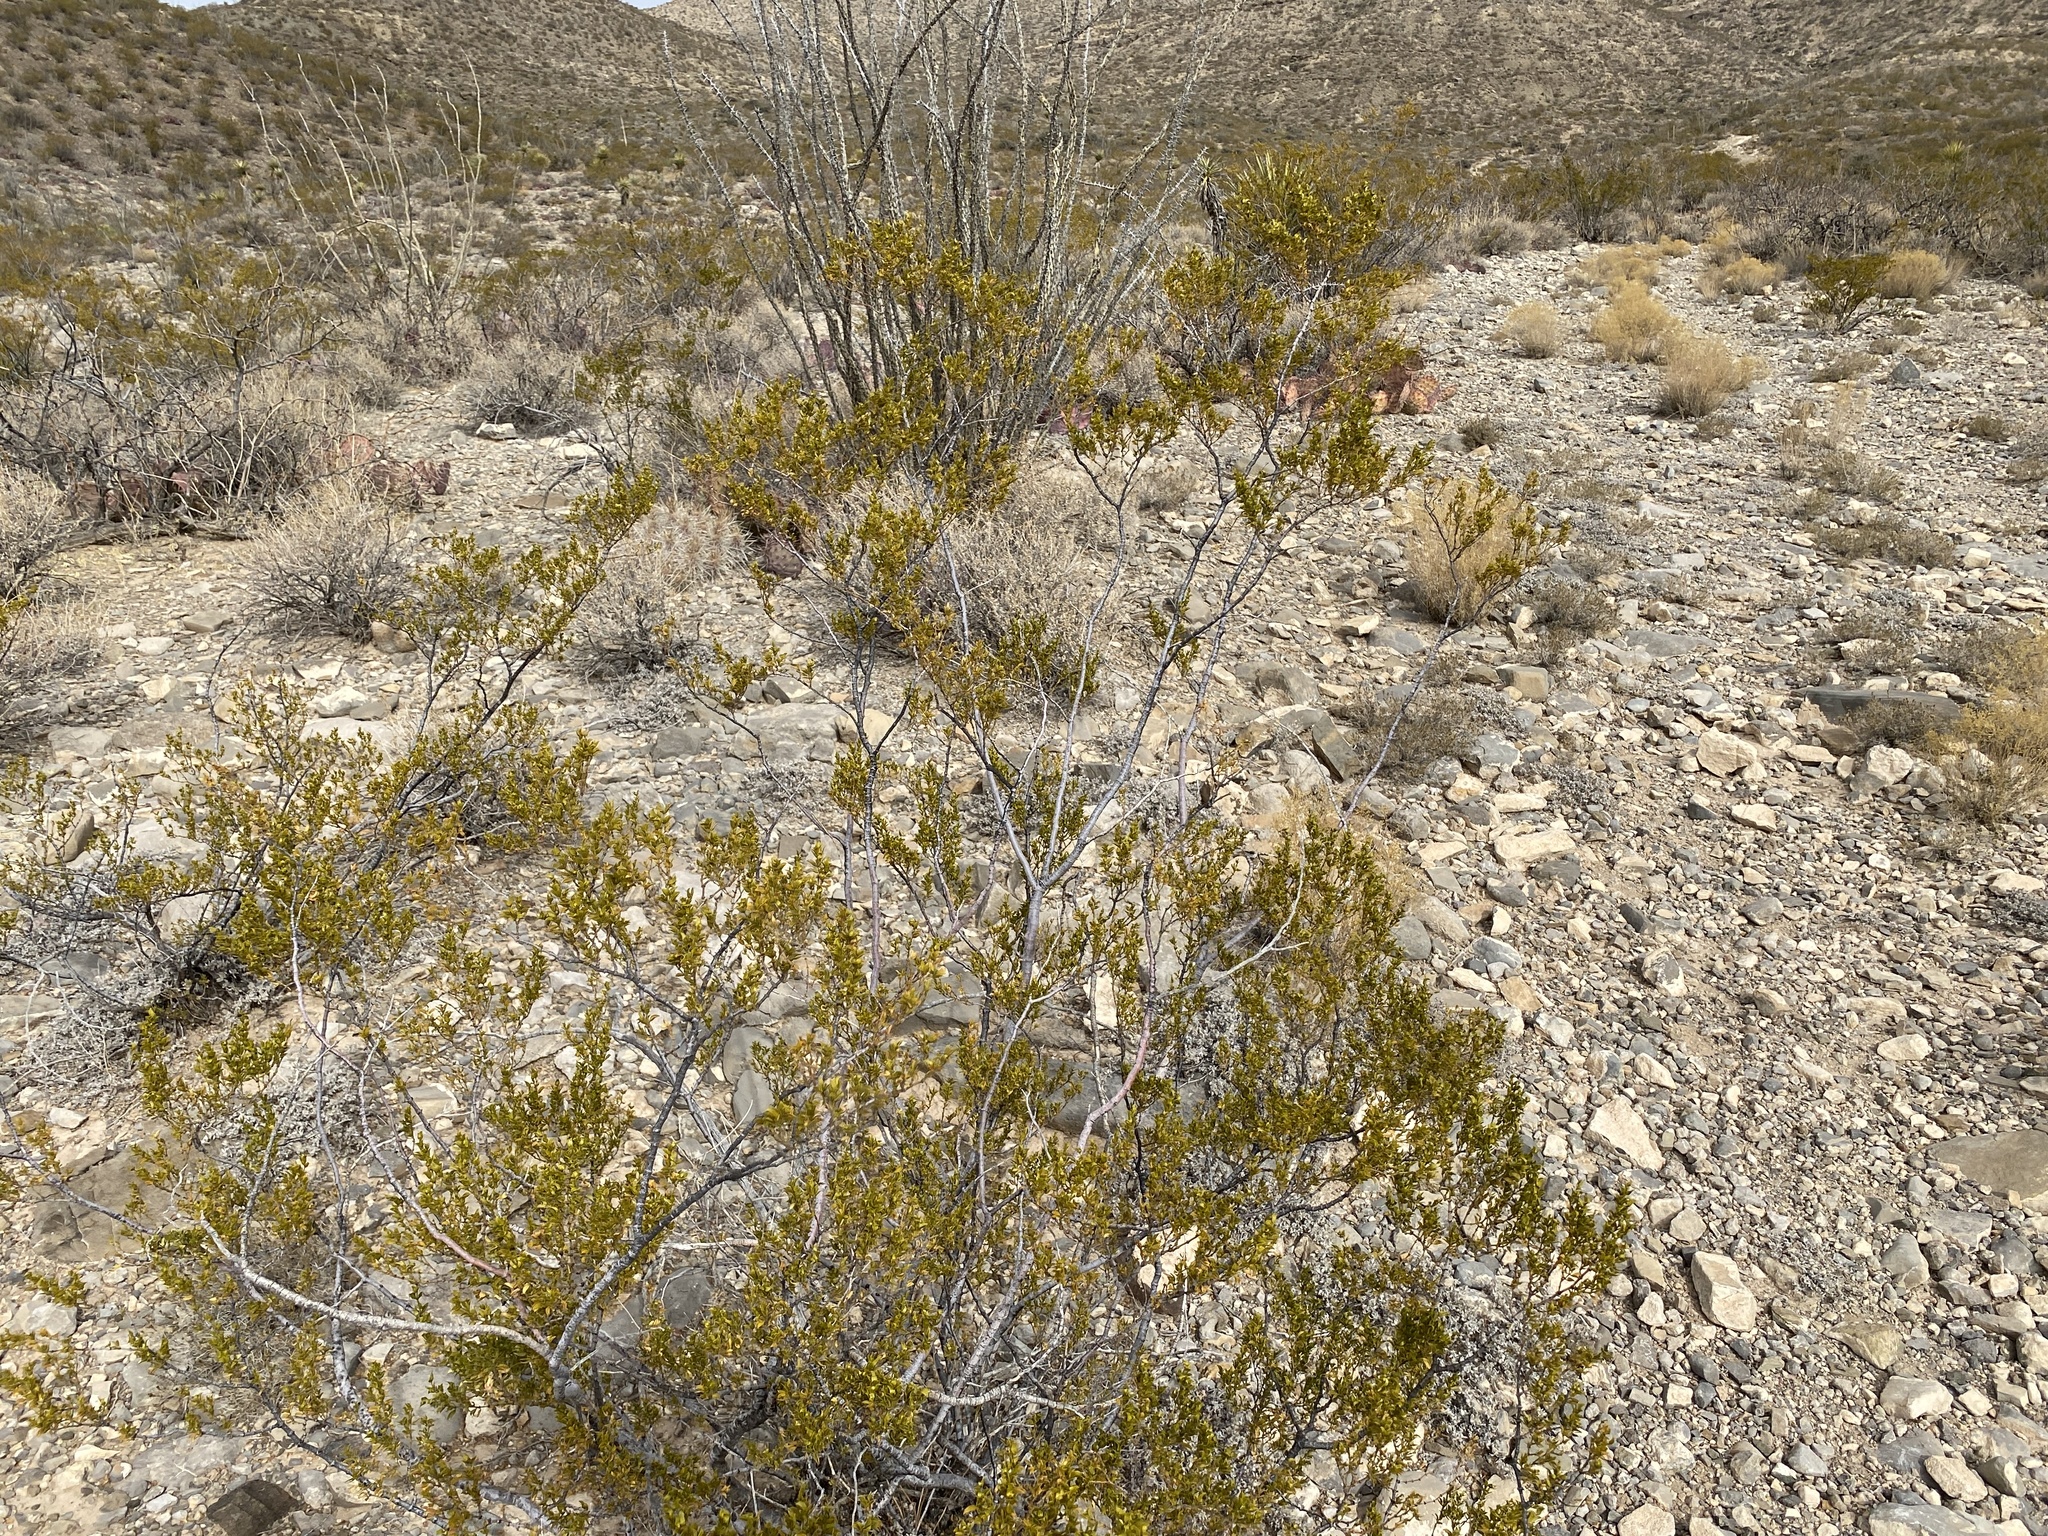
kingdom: Plantae
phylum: Tracheophyta
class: Magnoliopsida
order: Zygophyllales
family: Zygophyllaceae
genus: Larrea
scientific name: Larrea tridentata
